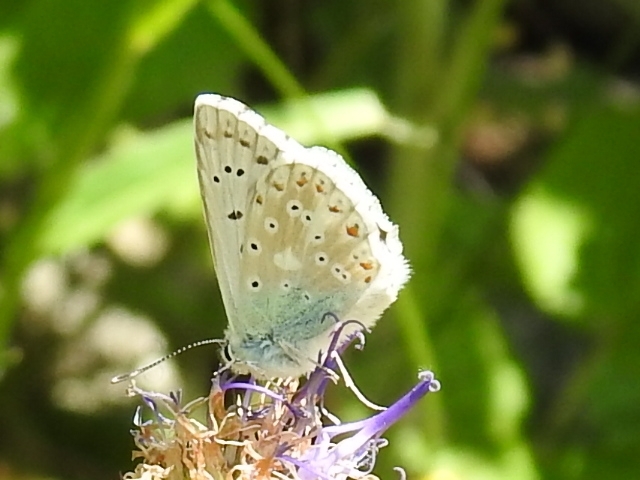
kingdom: Animalia
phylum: Arthropoda
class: Insecta
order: Lepidoptera
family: Lycaenidae
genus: Lysandra
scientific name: Lysandra coridon
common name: Chalkhill blue
